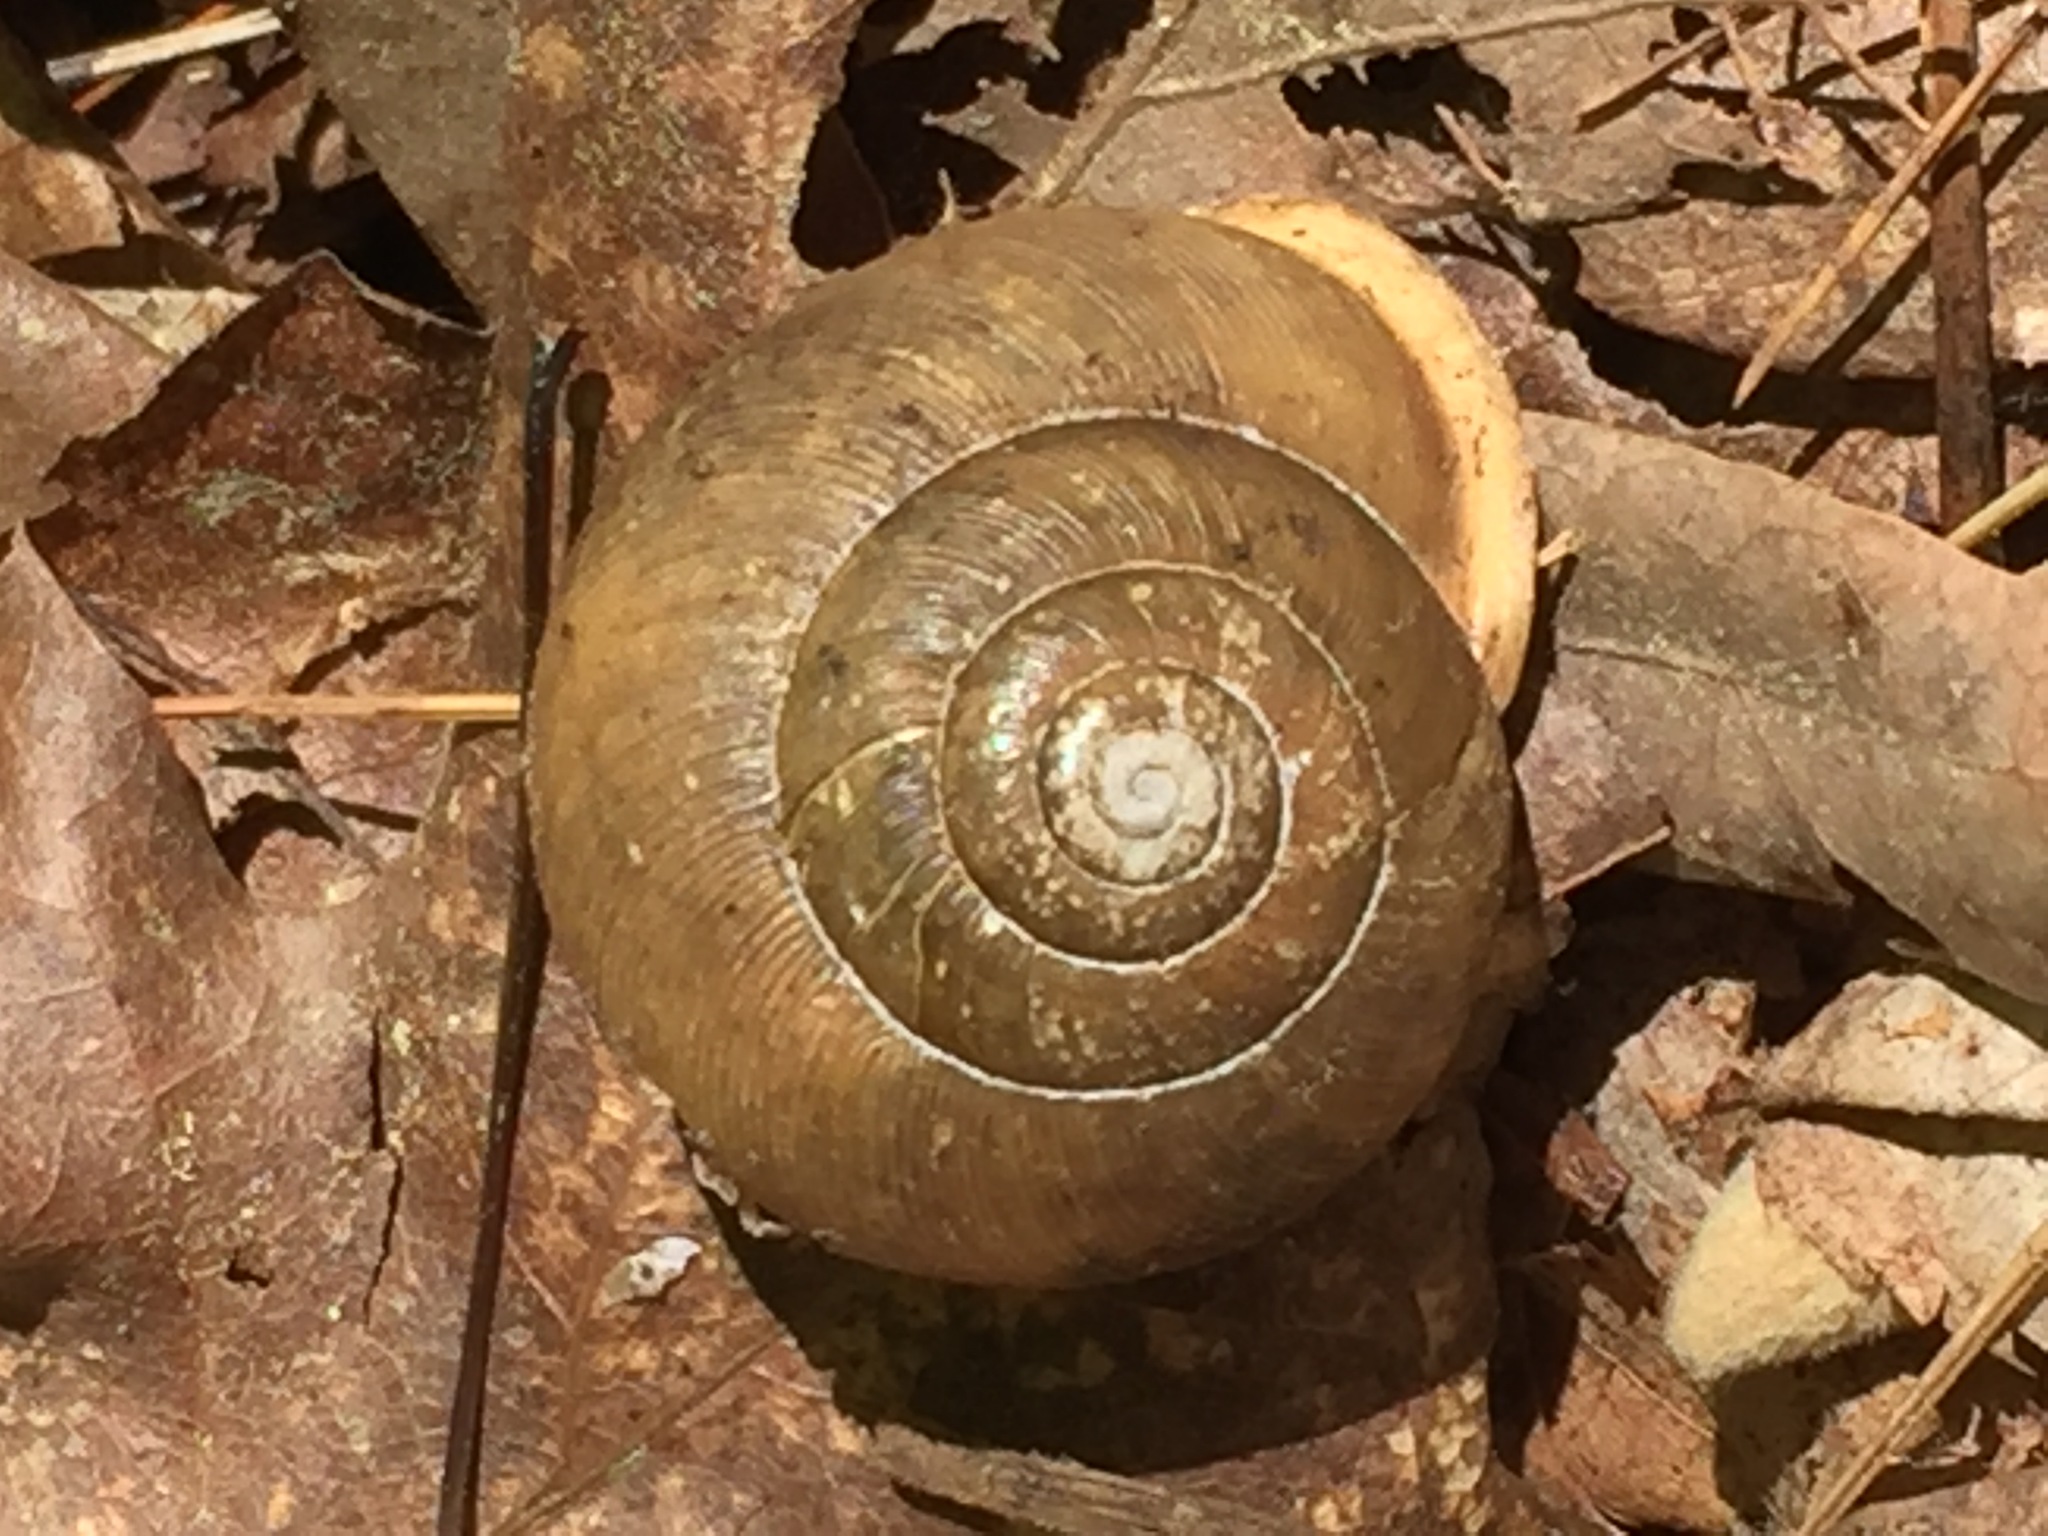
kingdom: Animalia
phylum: Mollusca
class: Gastropoda
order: Stylommatophora
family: Polygyridae
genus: Neohelix
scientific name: Neohelix albolabris
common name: Eastern whitelip
